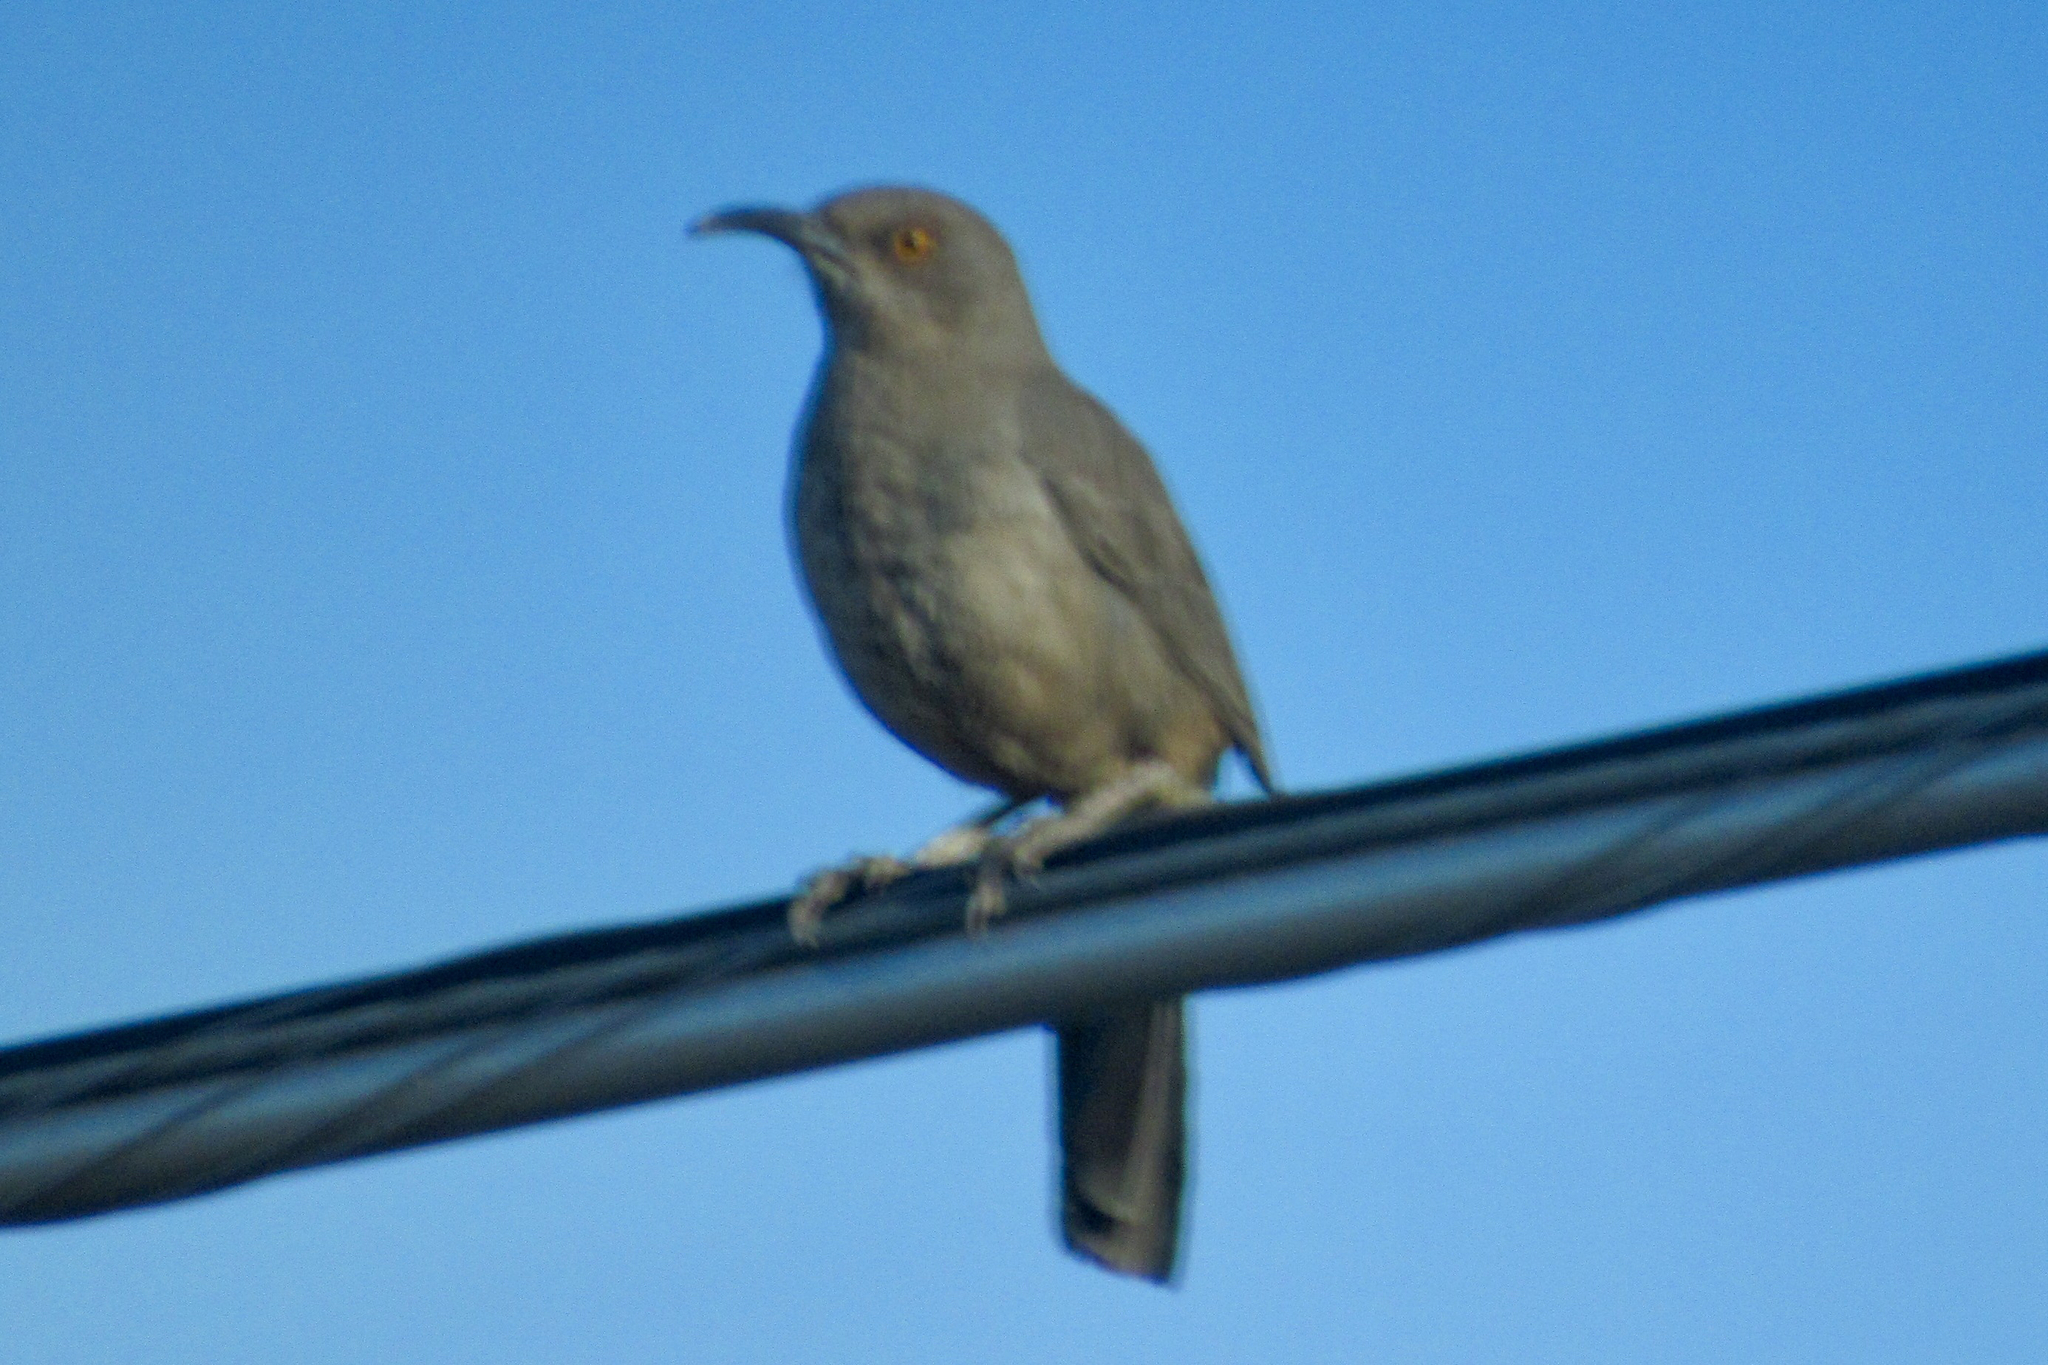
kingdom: Animalia
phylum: Chordata
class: Aves
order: Passeriformes
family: Mimidae
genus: Toxostoma
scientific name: Toxostoma curvirostre
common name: Curve-billed thrasher
